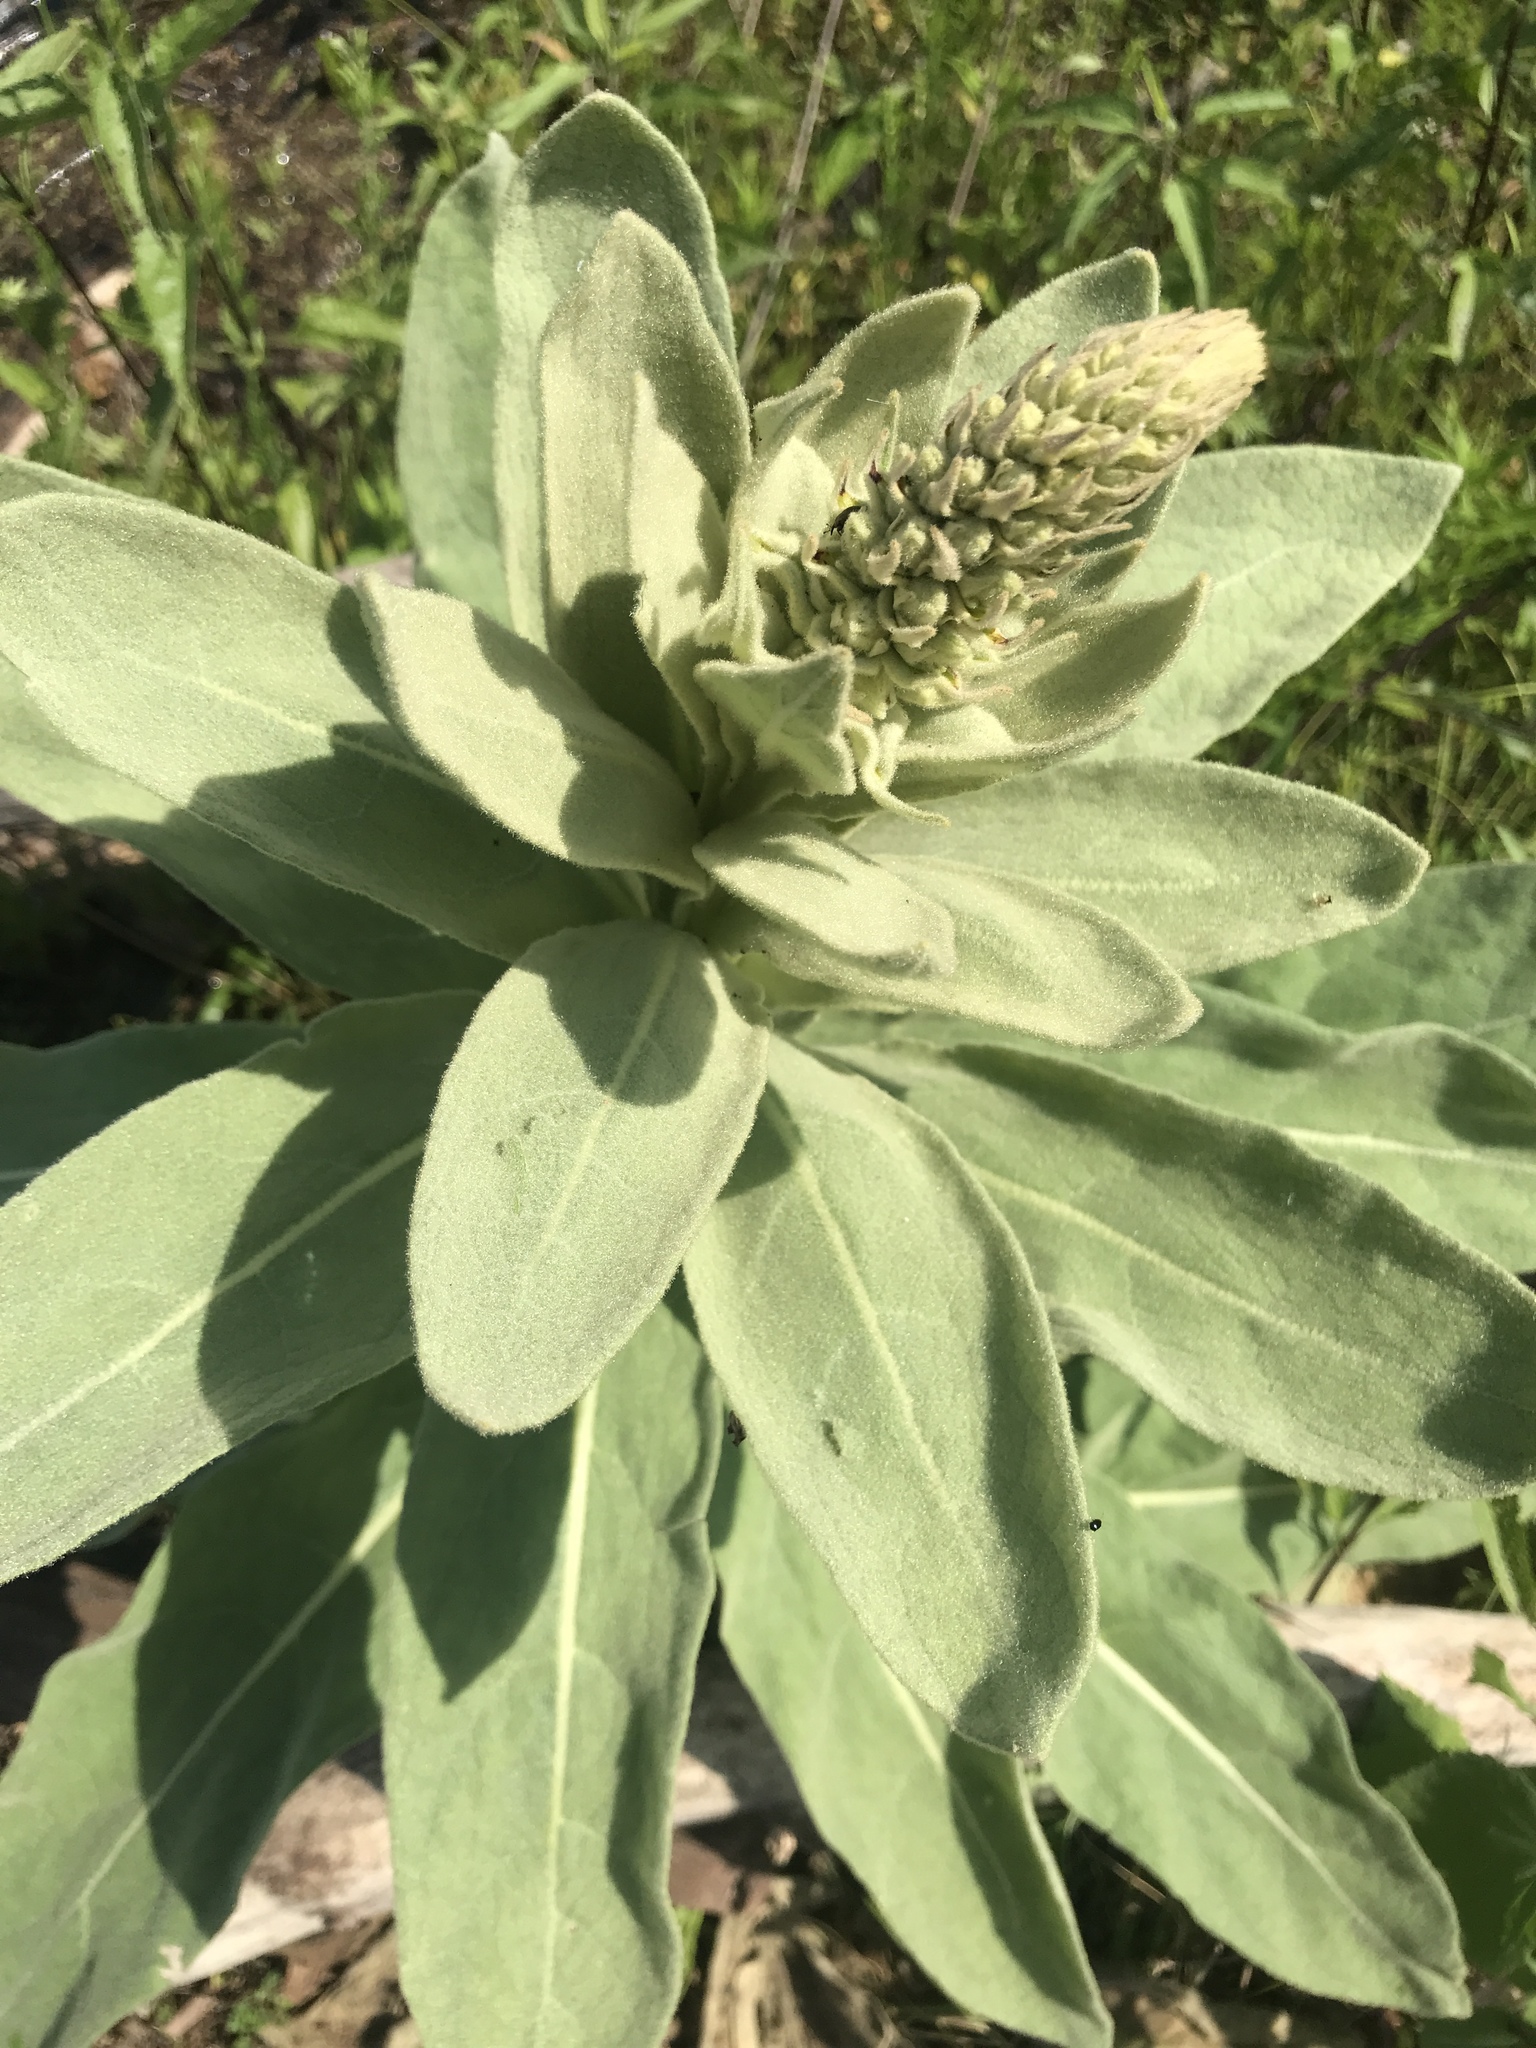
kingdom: Plantae
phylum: Tracheophyta
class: Magnoliopsida
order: Lamiales
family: Scrophulariaceae
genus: Verbascum
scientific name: Verbascum thapsus
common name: Common mullein
